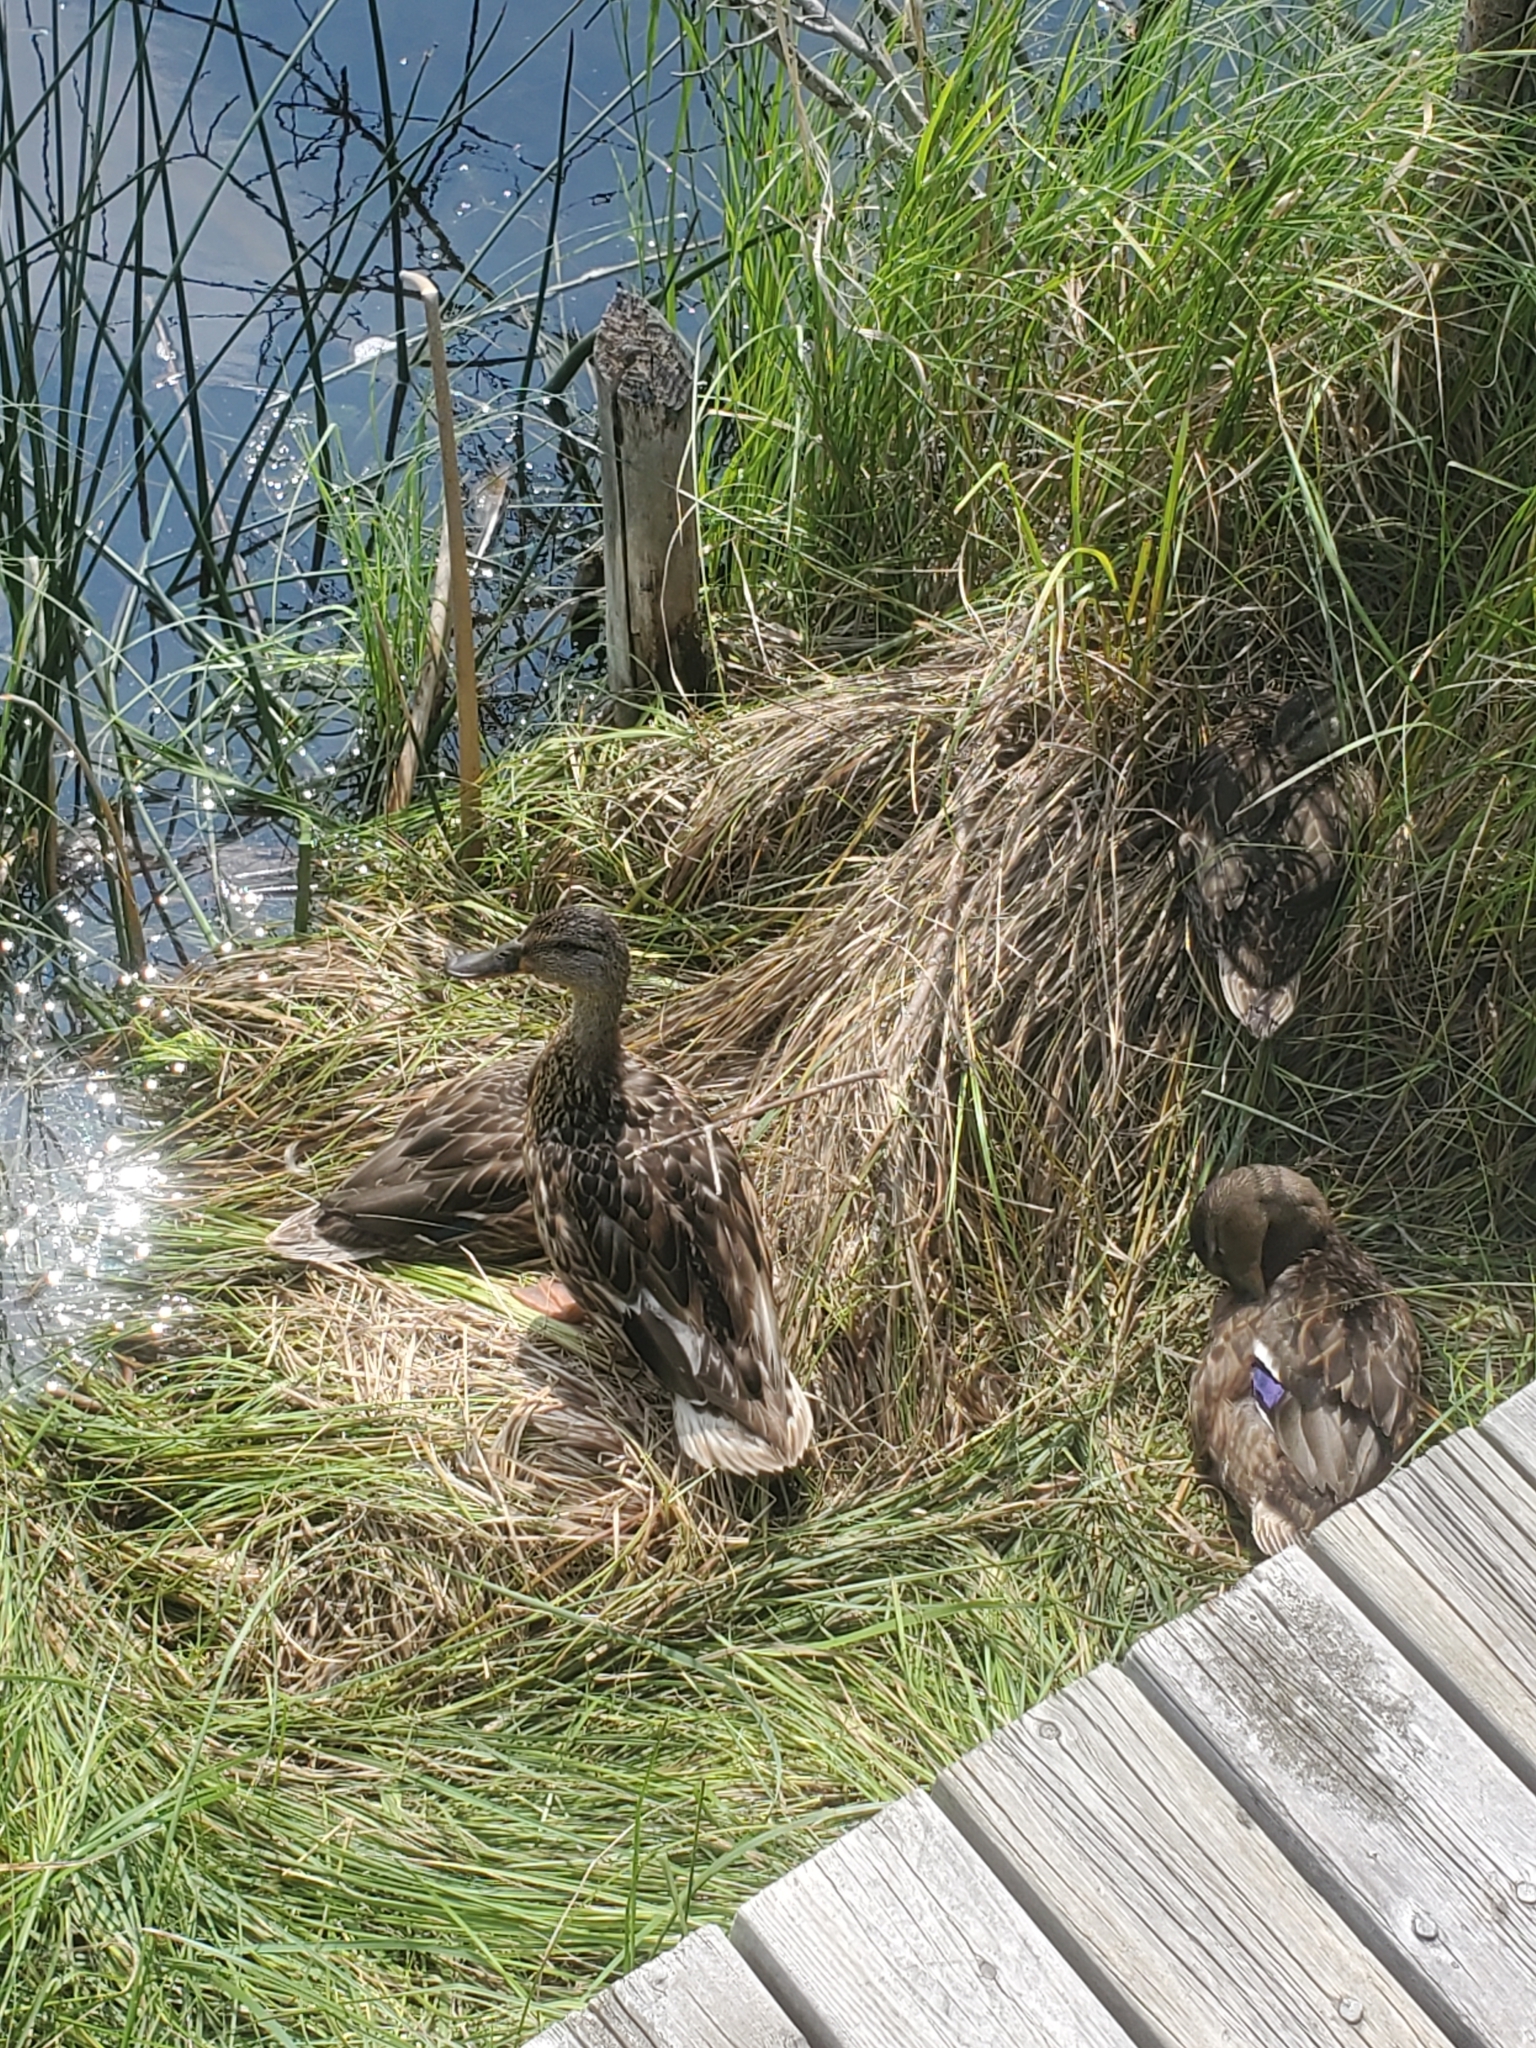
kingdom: Animalia
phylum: Chordata
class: Aves
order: Anseriformes
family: Anatidae
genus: Anas
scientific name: Anas platyrhynchos
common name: Mallard
